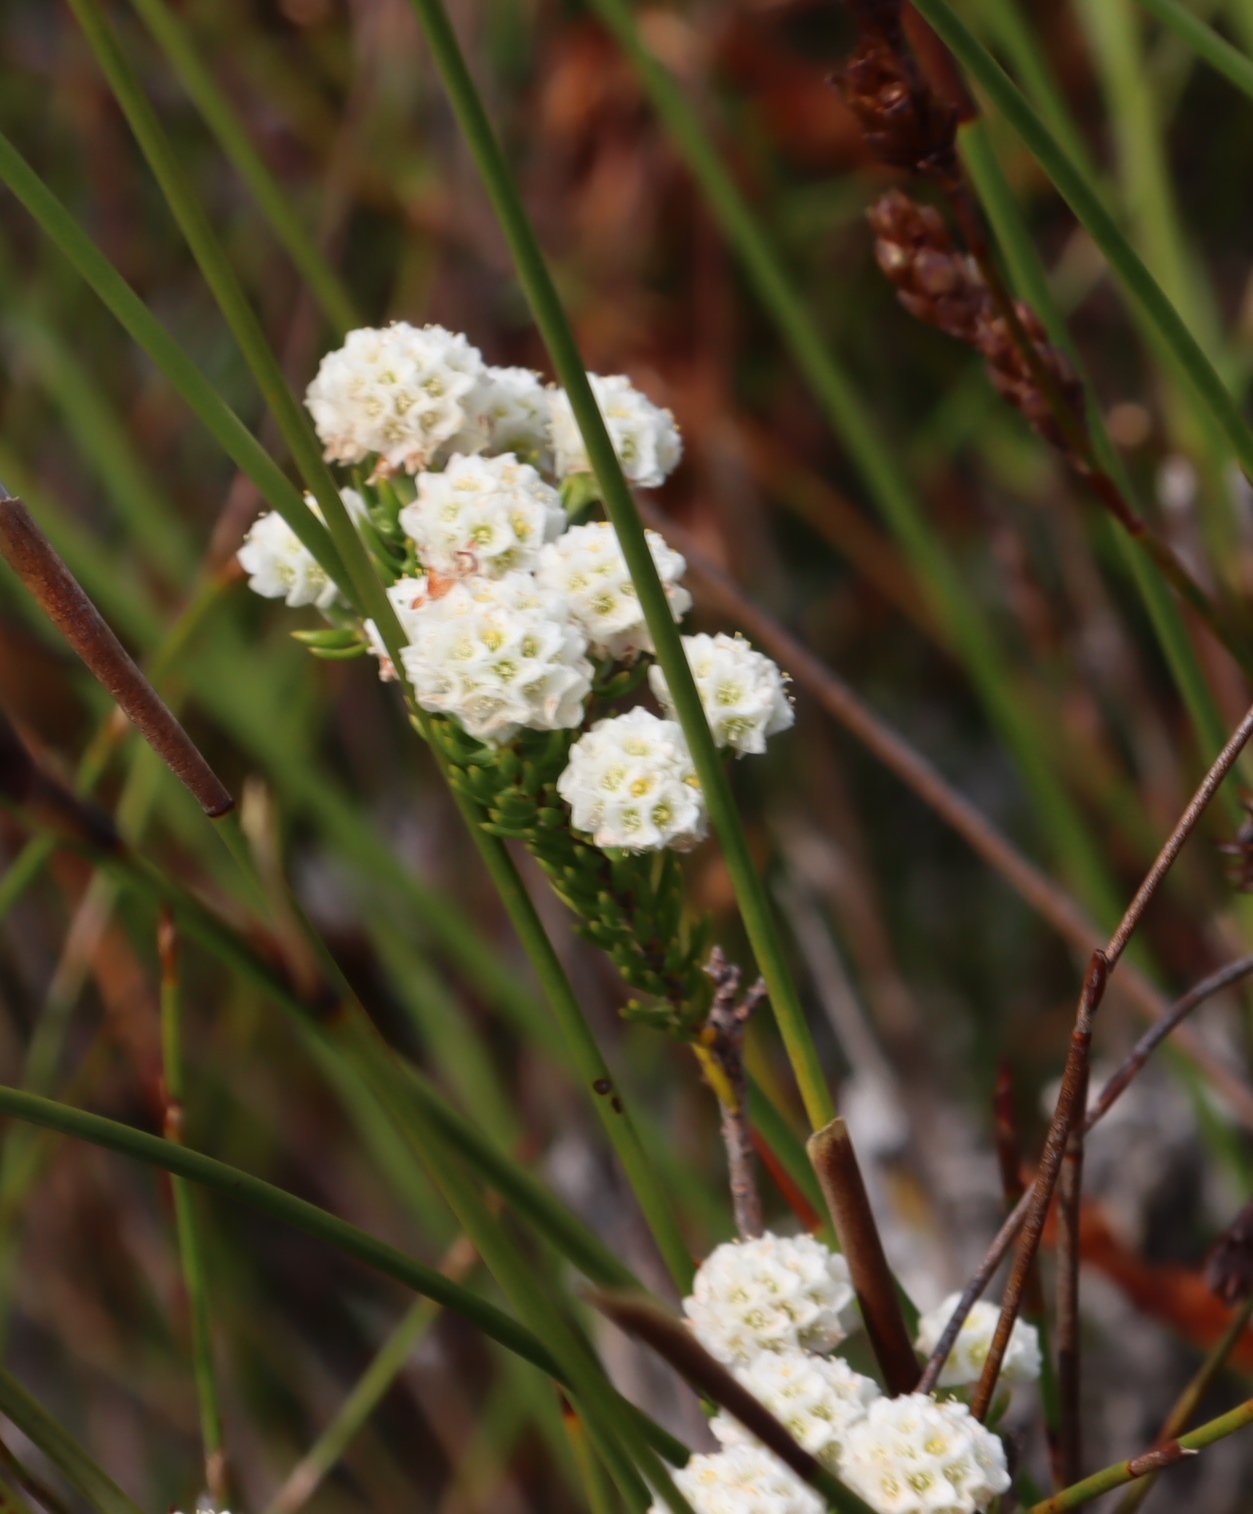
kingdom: Plantae
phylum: Tracheophyta
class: Magnoliopsida
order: Malvales
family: Thymelaeaceae
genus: Lachnaea
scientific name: Lachnaea densiflora
